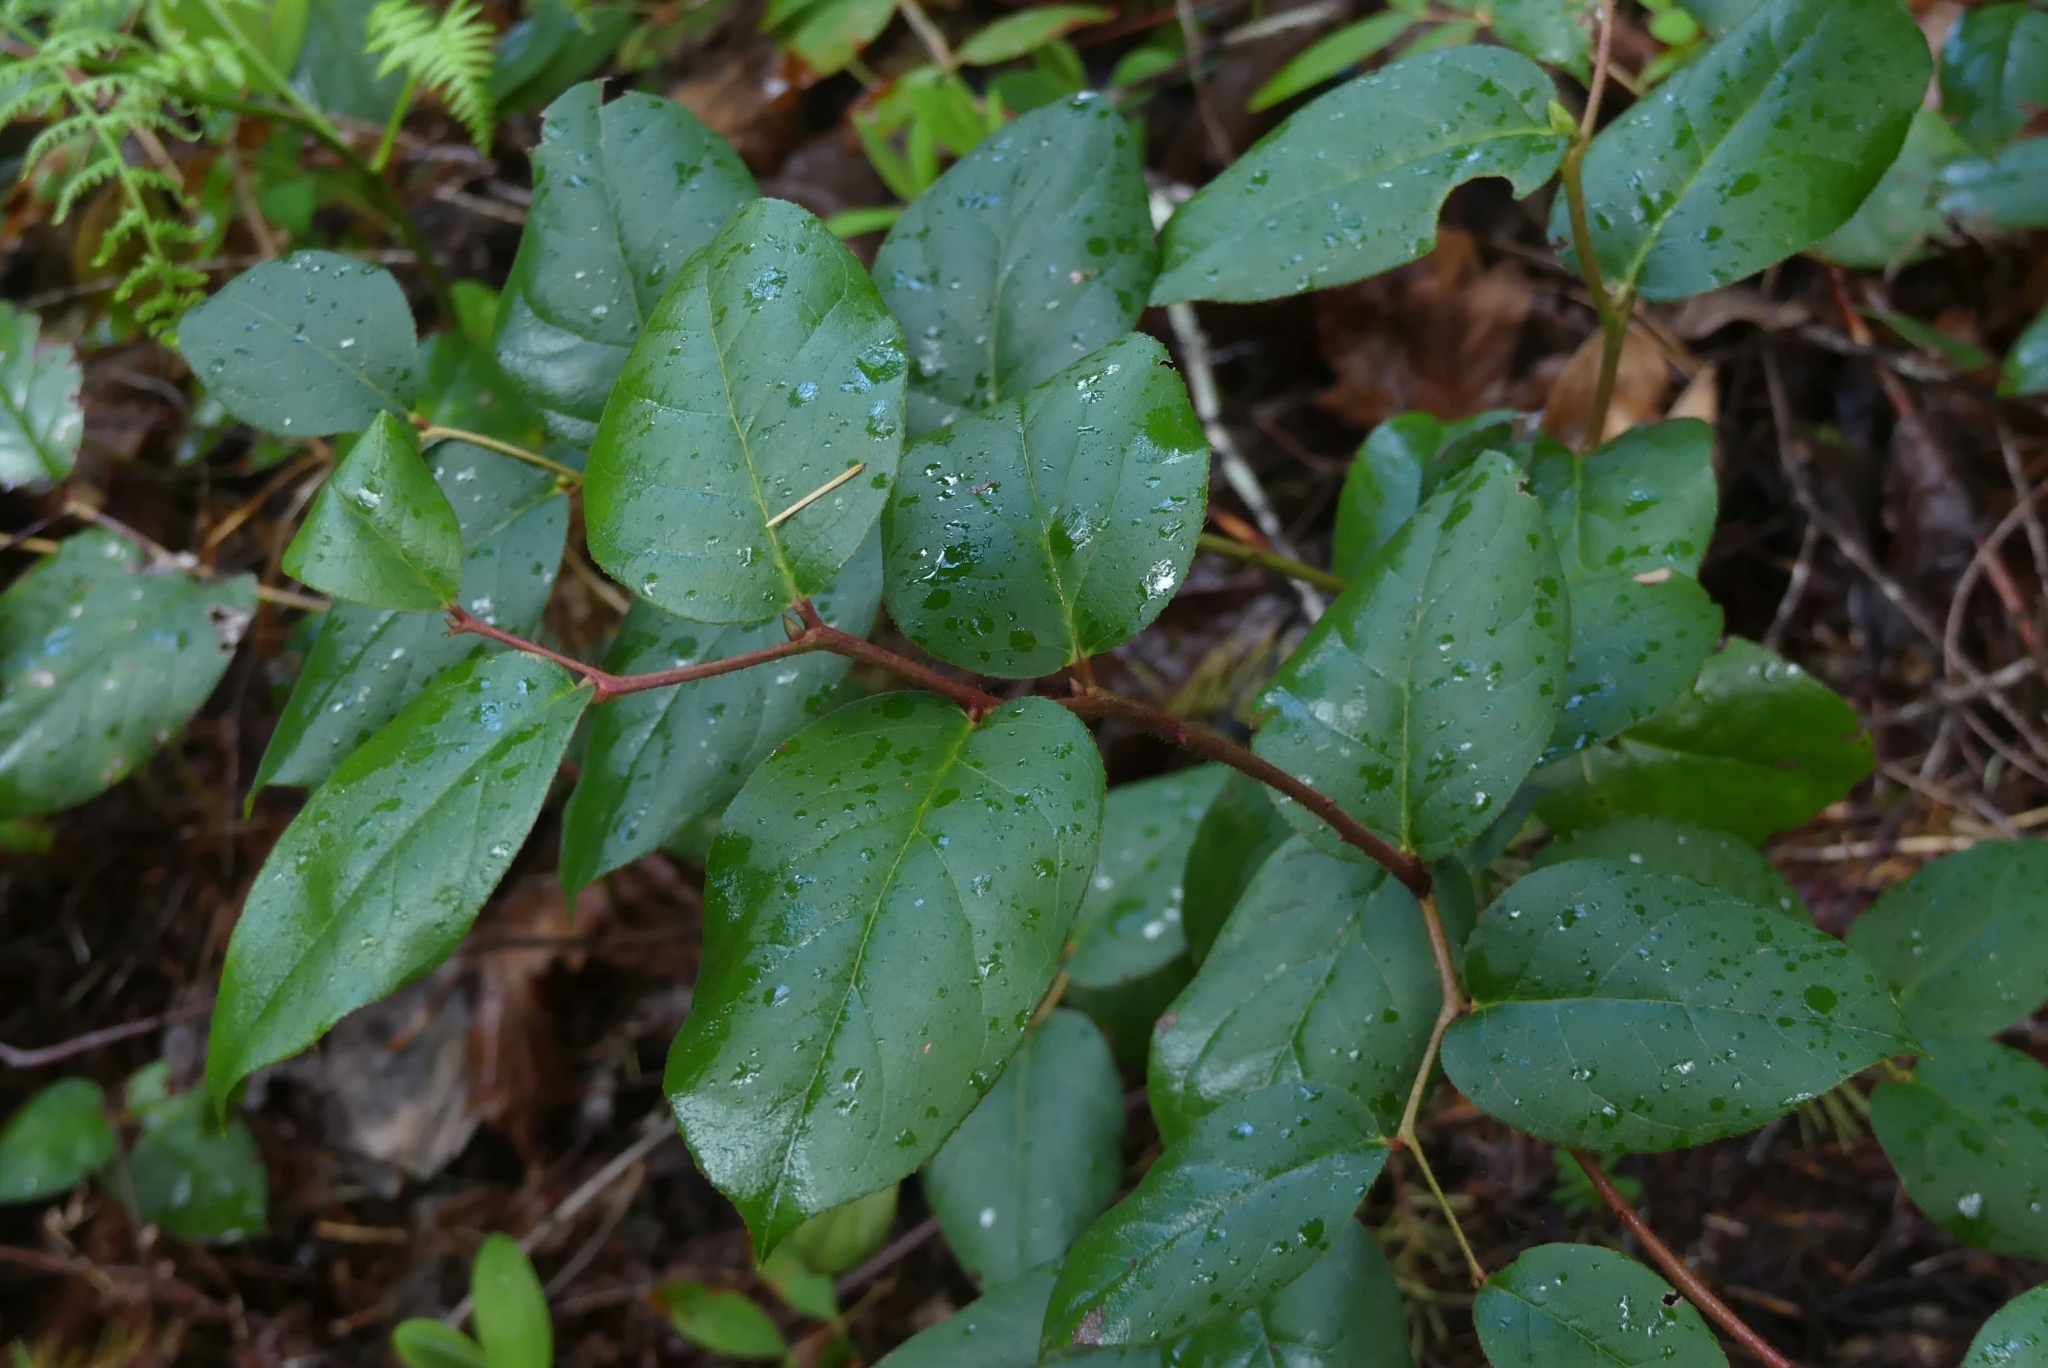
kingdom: Plantae
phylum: Tracheophyta
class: Magnoliopsida
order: Ericales
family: Ericaceae
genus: Gaultheria
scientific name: Gaultheria shallon
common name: Shallon
